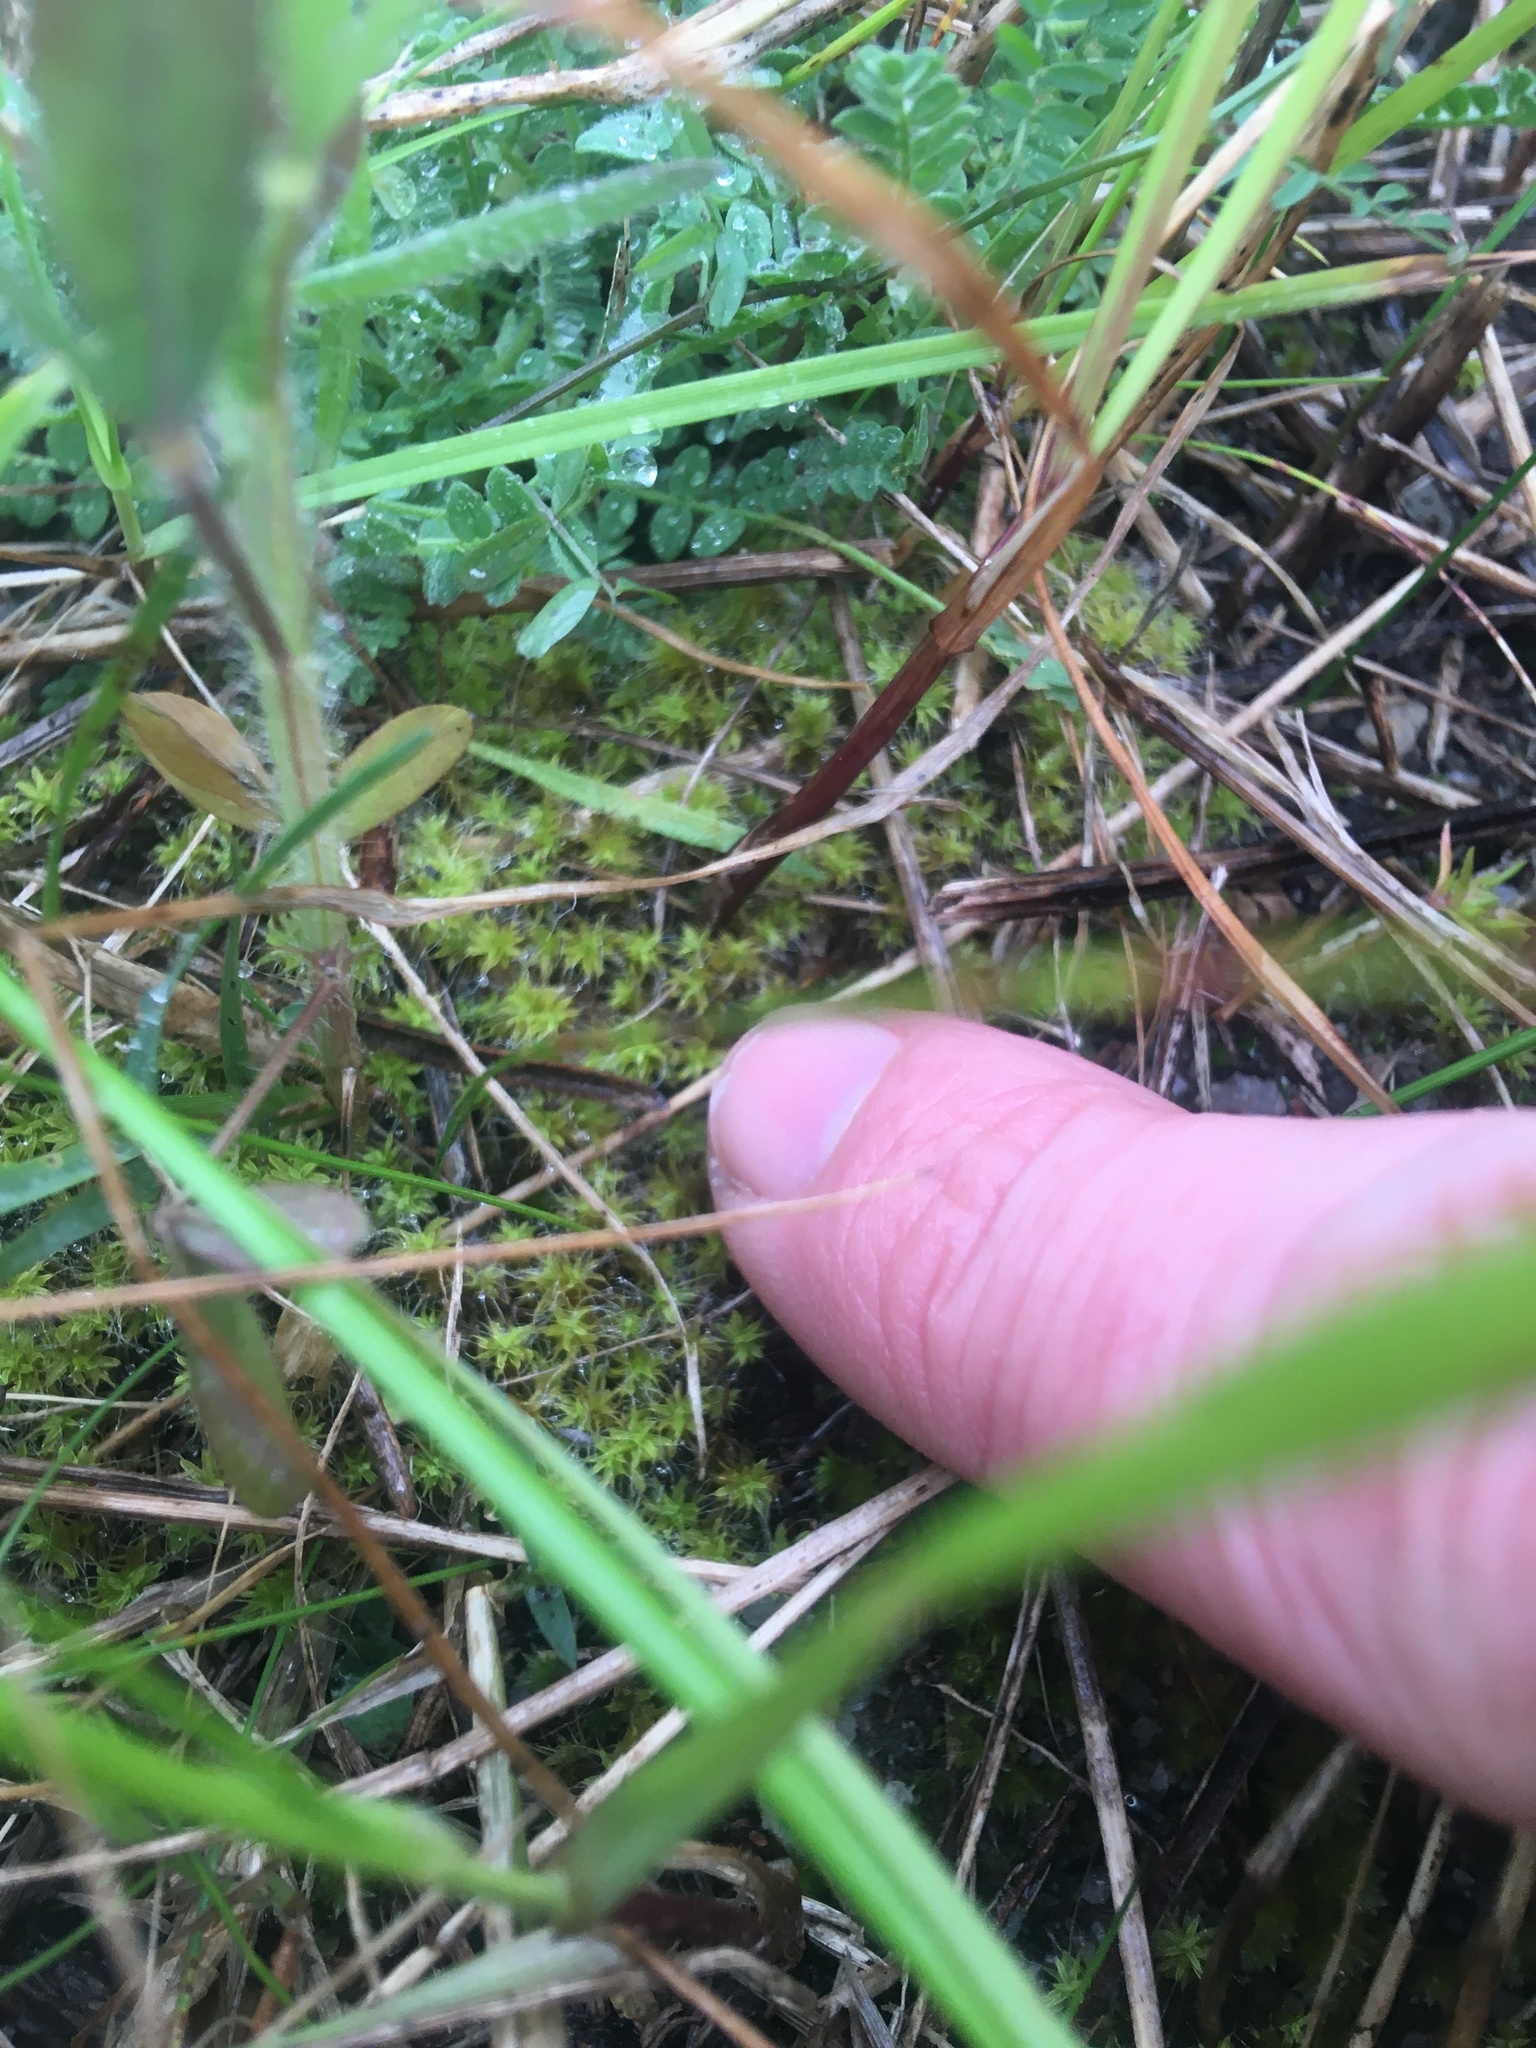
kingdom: Plantae
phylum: Bryophyta
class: Bryopsida
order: Pottiales
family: Pottiaceae
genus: Pseudocrossidium
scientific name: Pseudocrossidium crinitum
